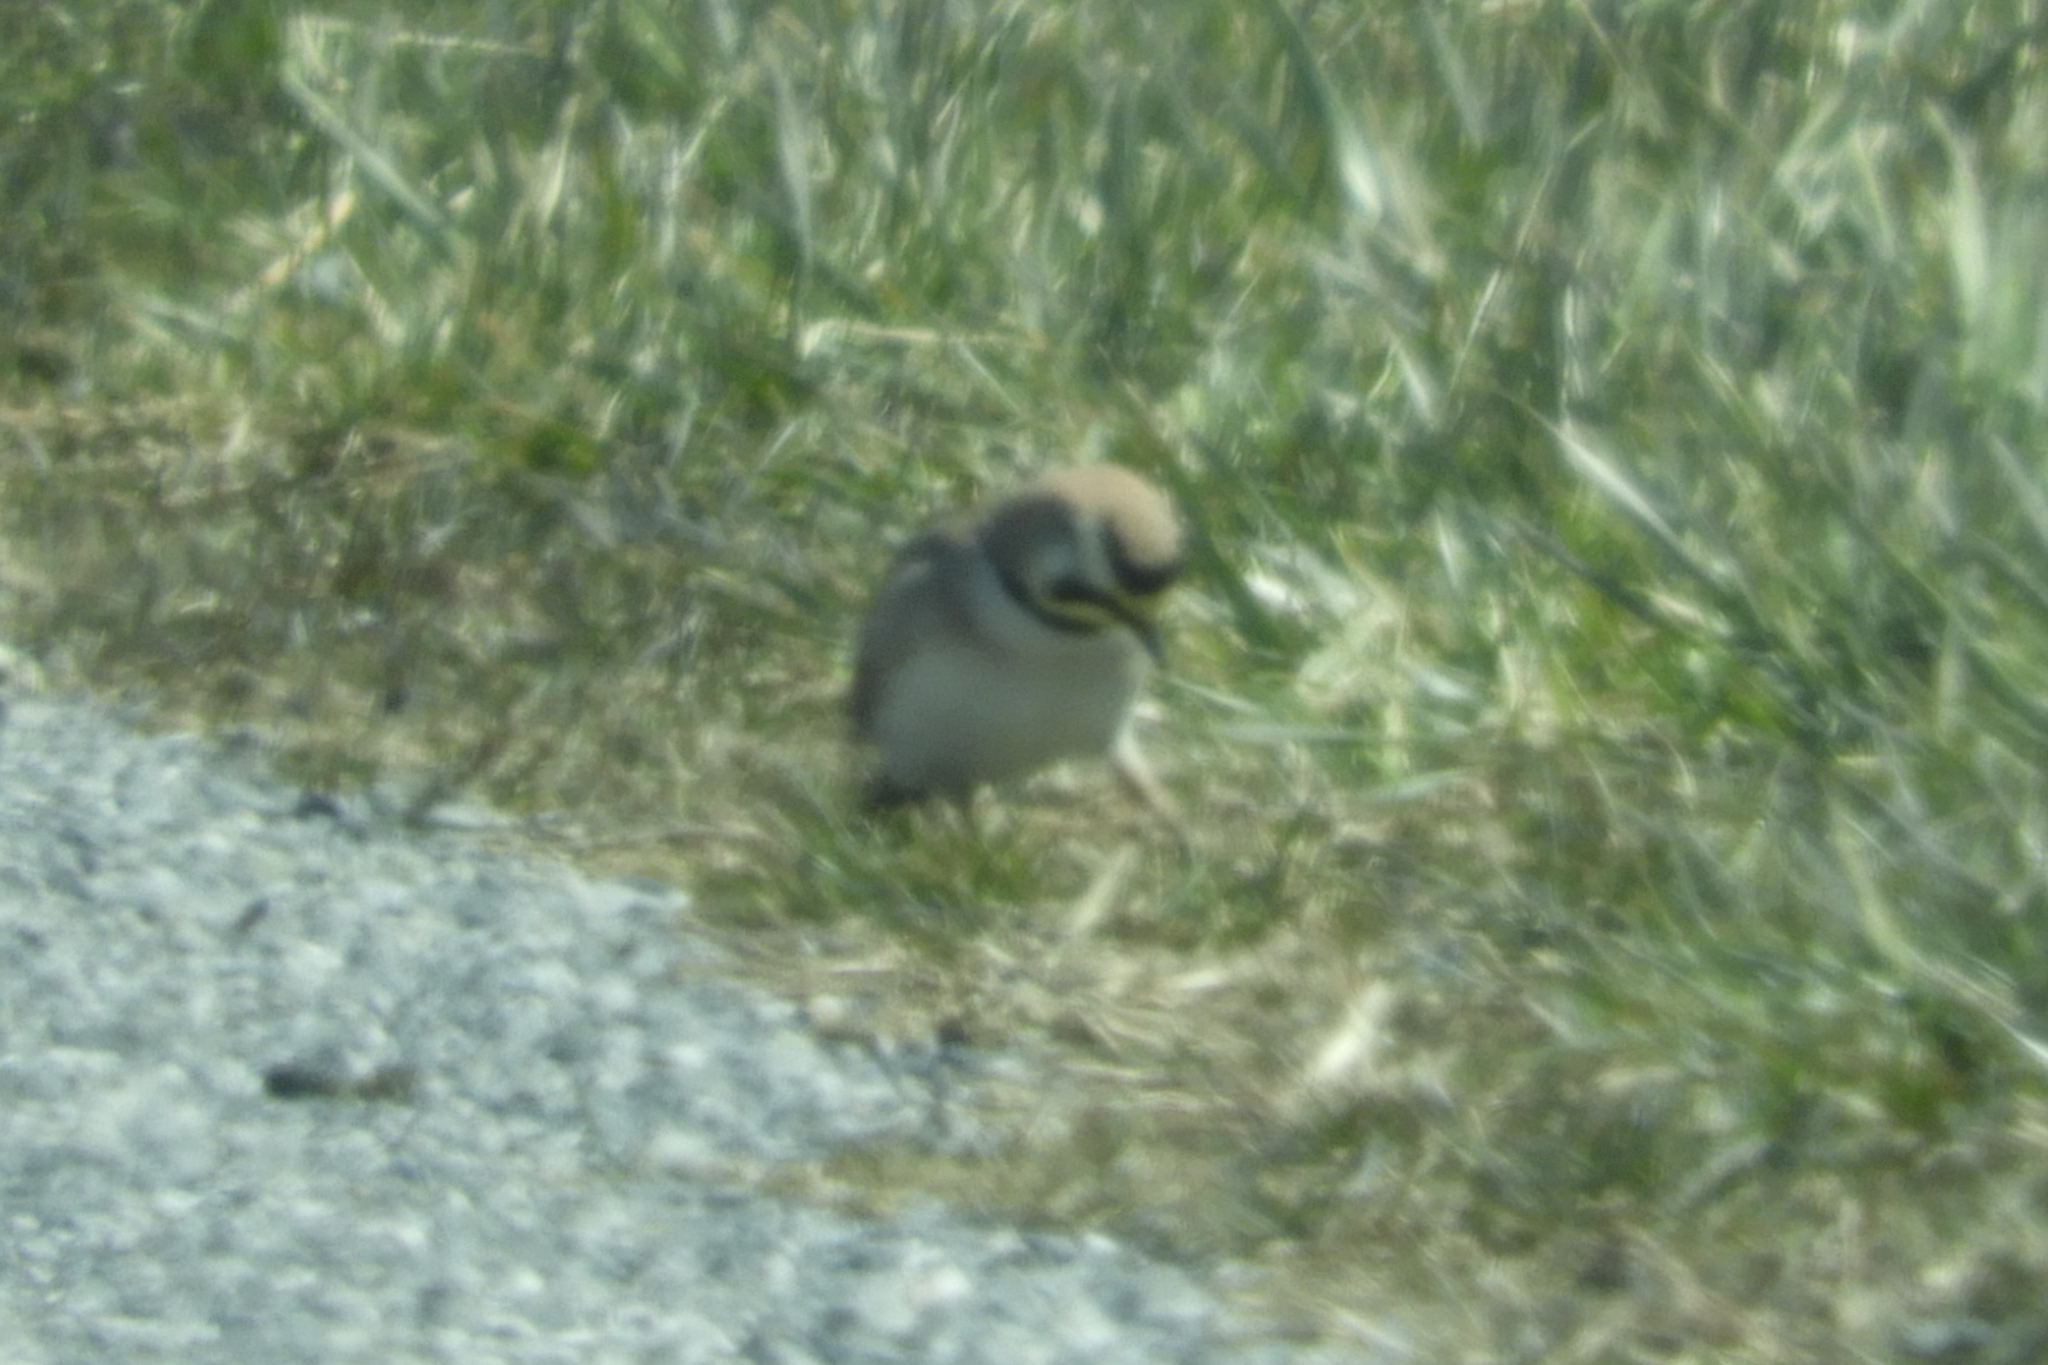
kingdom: Animalia
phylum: Chordata
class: Aves
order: Passeriformes
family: Alaudidae
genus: Eremophila
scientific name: Eremophila alpestris
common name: Horned lark
